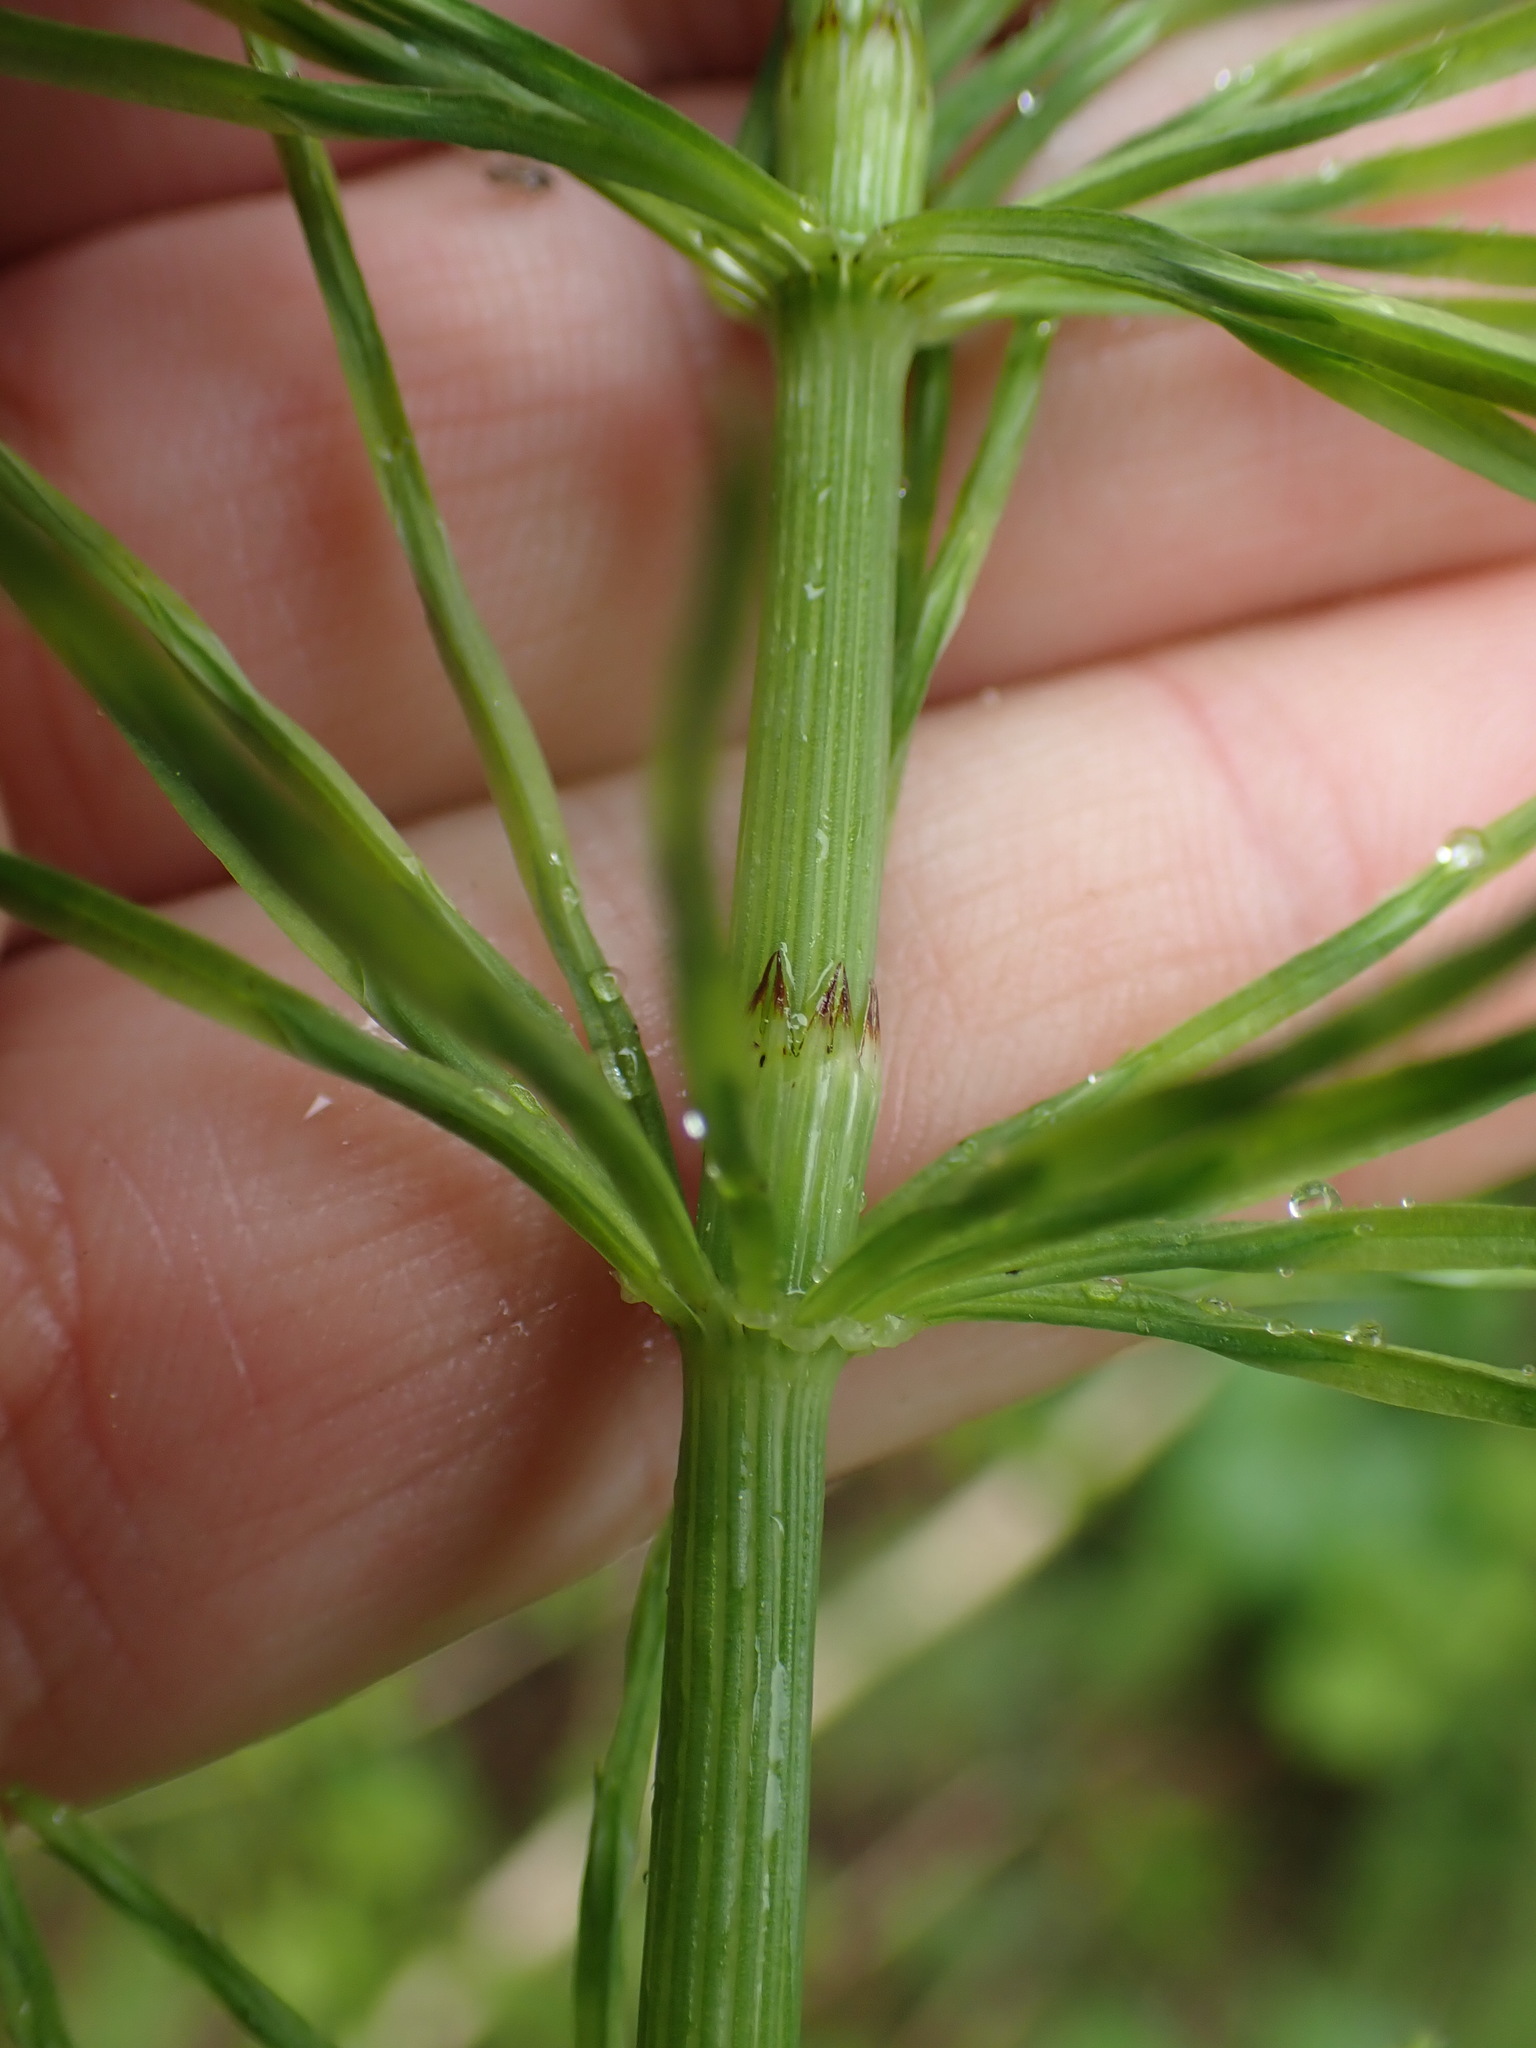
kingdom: Plantae
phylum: Tracheophyta
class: Polypodiopsida
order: Equisetales
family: Equisetaceae
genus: Equisetum
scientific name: Equisetum arvense
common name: Field horsetail
